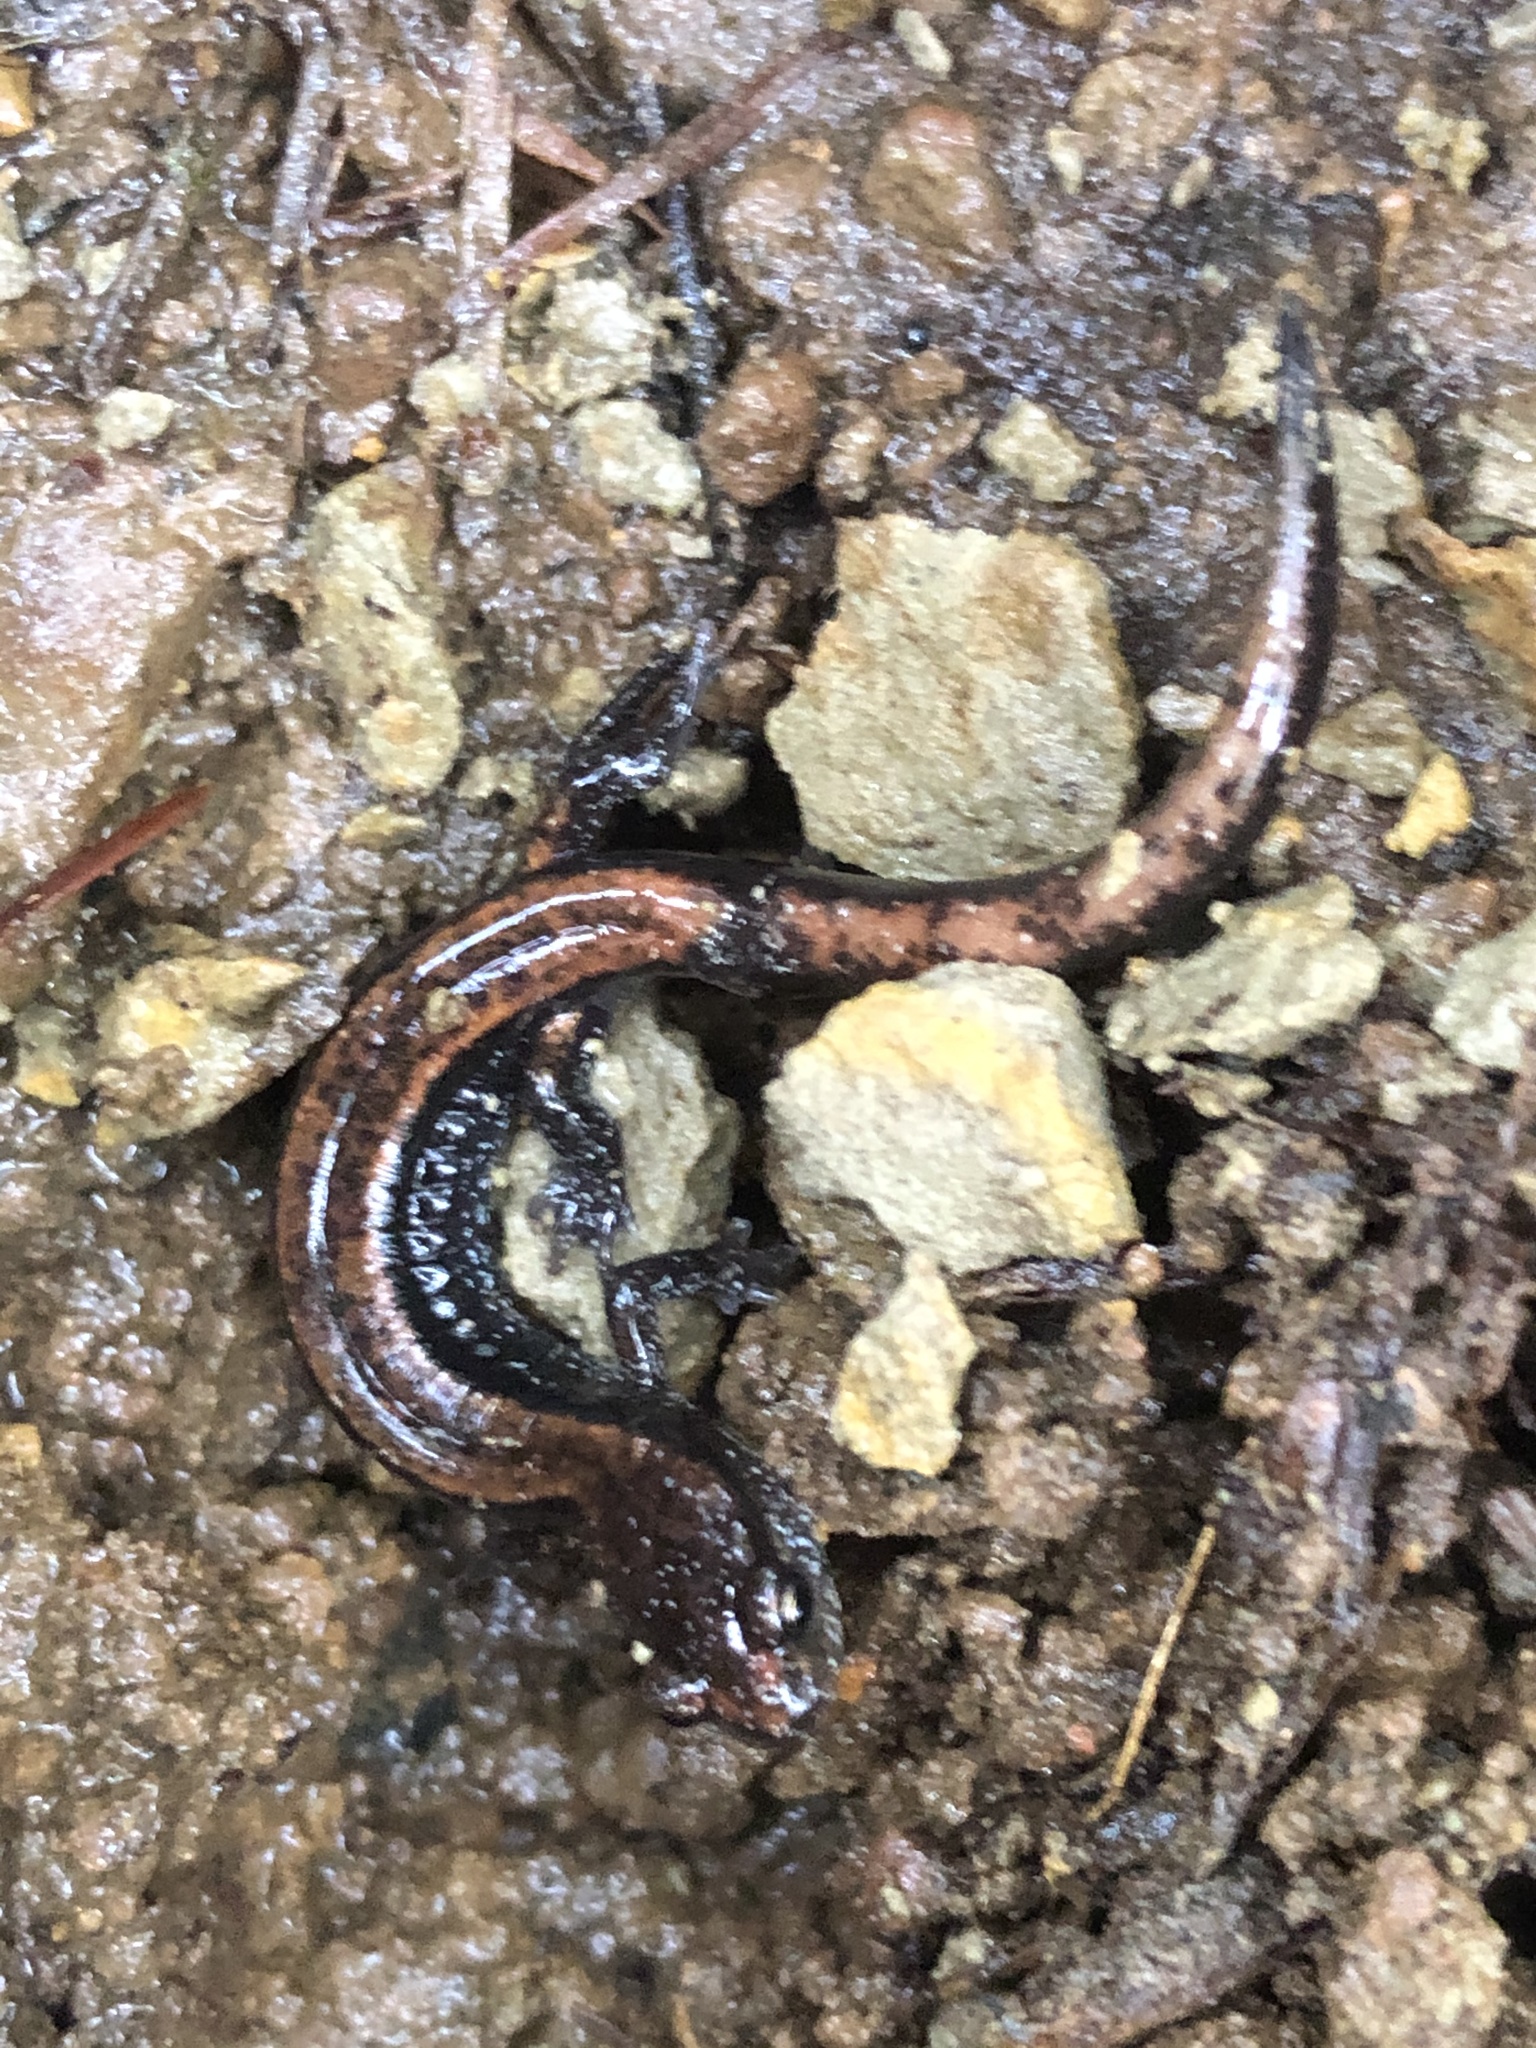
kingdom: Animalia
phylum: Chordata
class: Amphibia
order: Caudata
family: Plethodontidae
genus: Plethodon
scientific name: Plethodon vehiculum
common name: Western red-backed salamander
